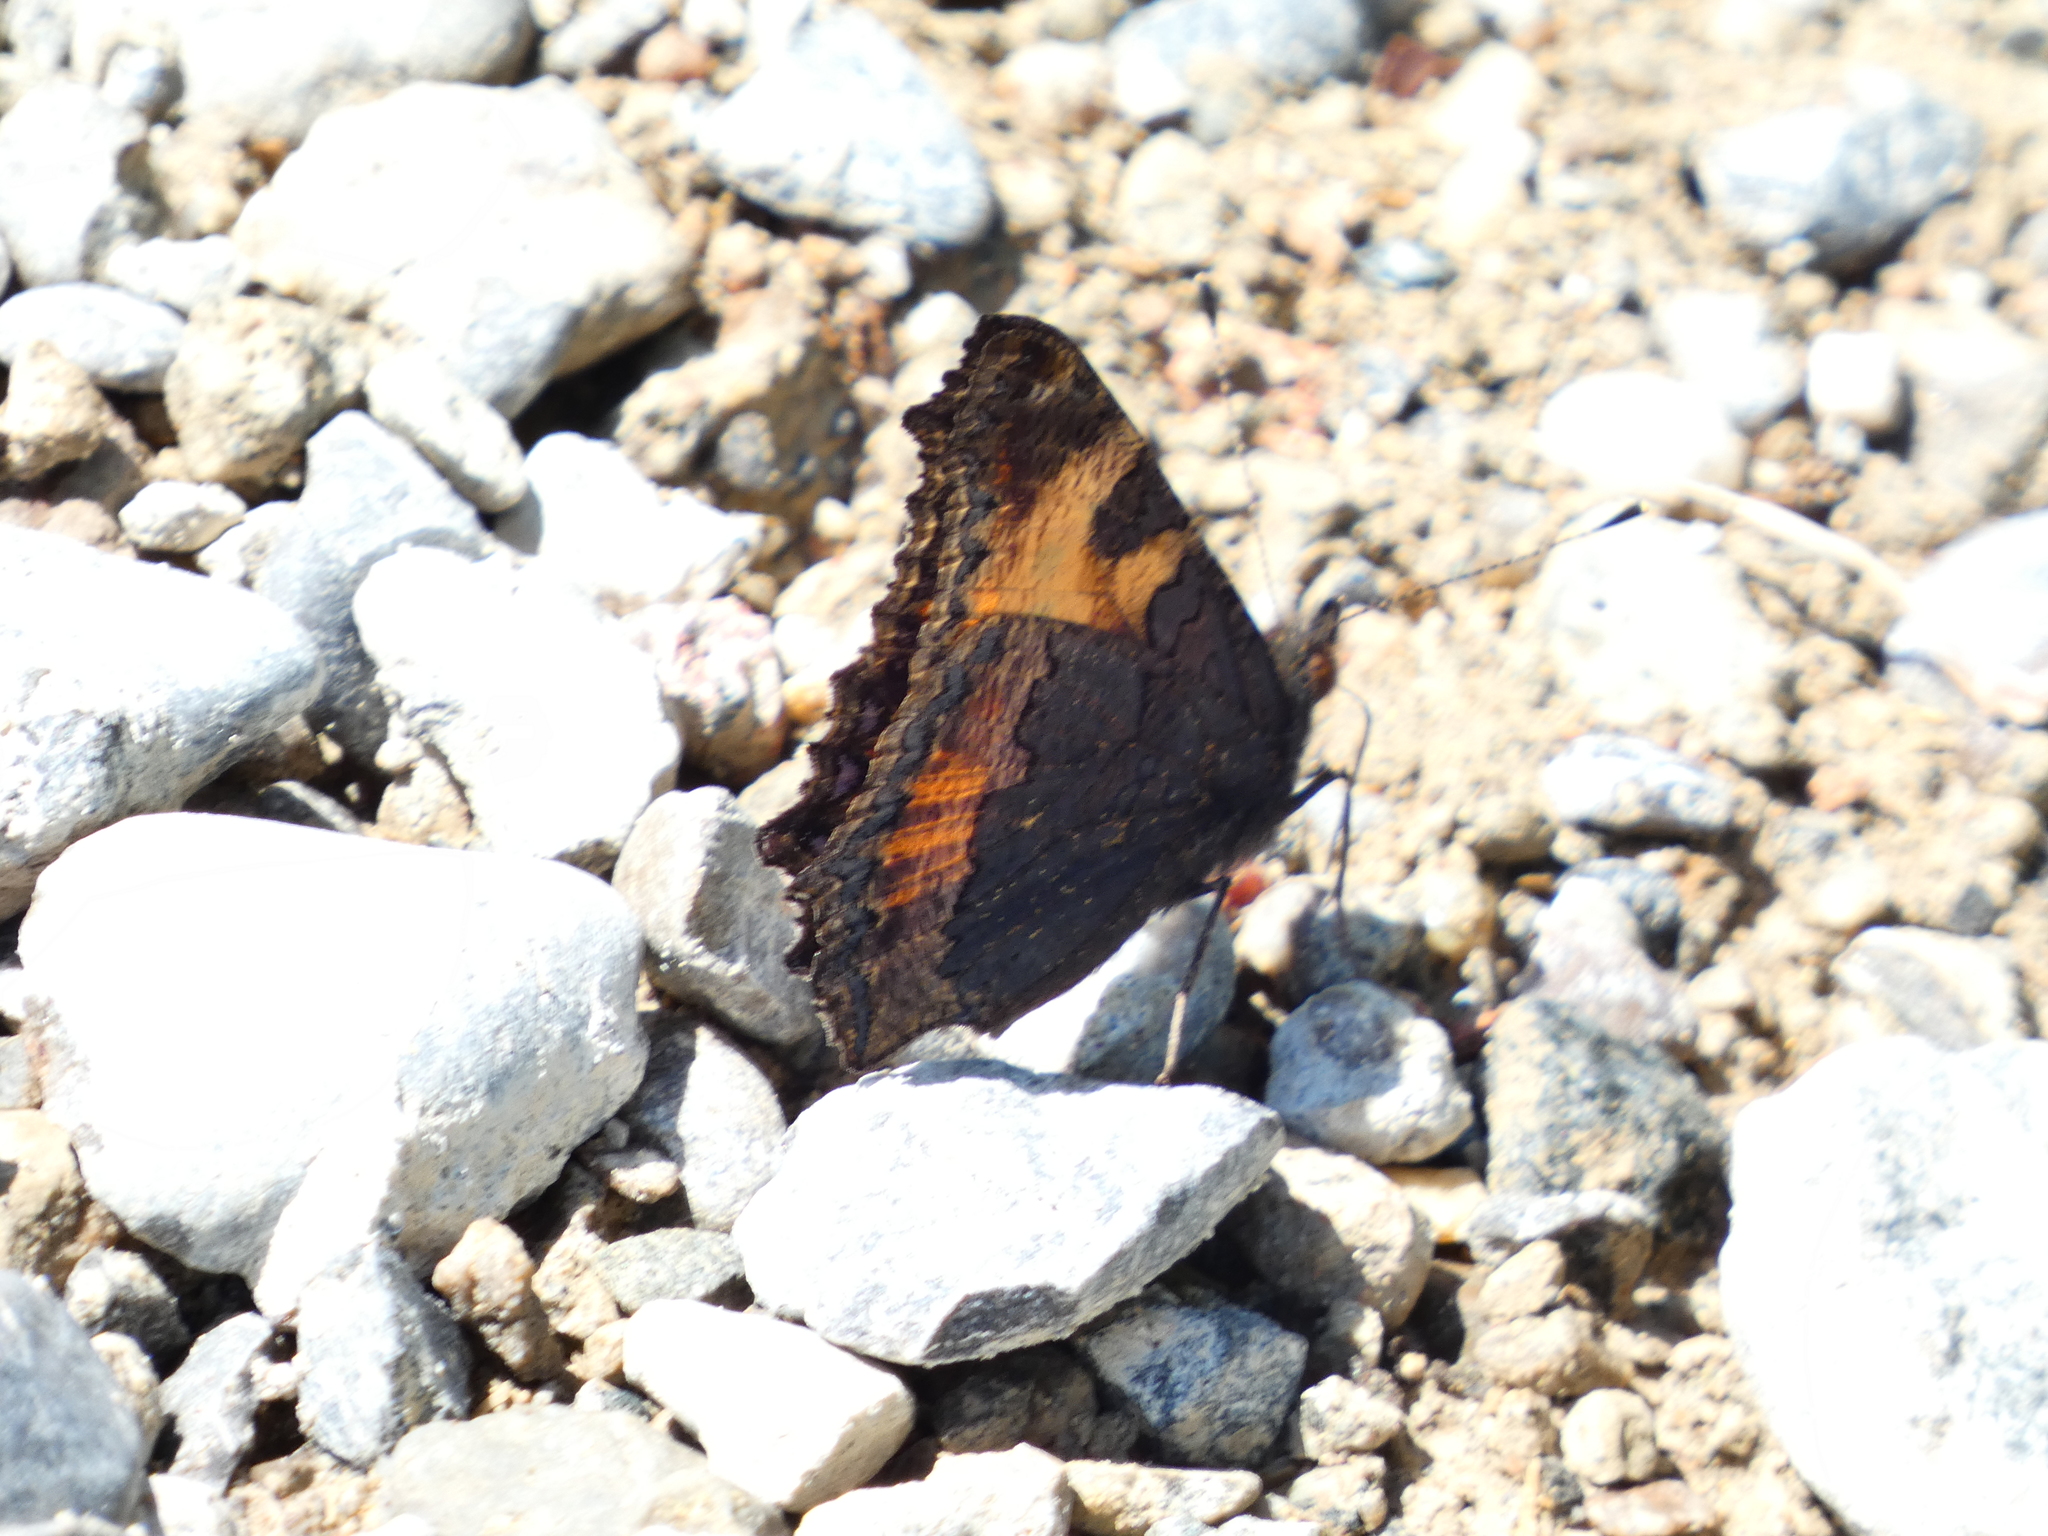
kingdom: Animalia
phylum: Arthropoda
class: Insecta
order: Lepidoptera
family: Nymphalidae
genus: Aglais
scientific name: Aglais urticae
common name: Small tortoiseshell
